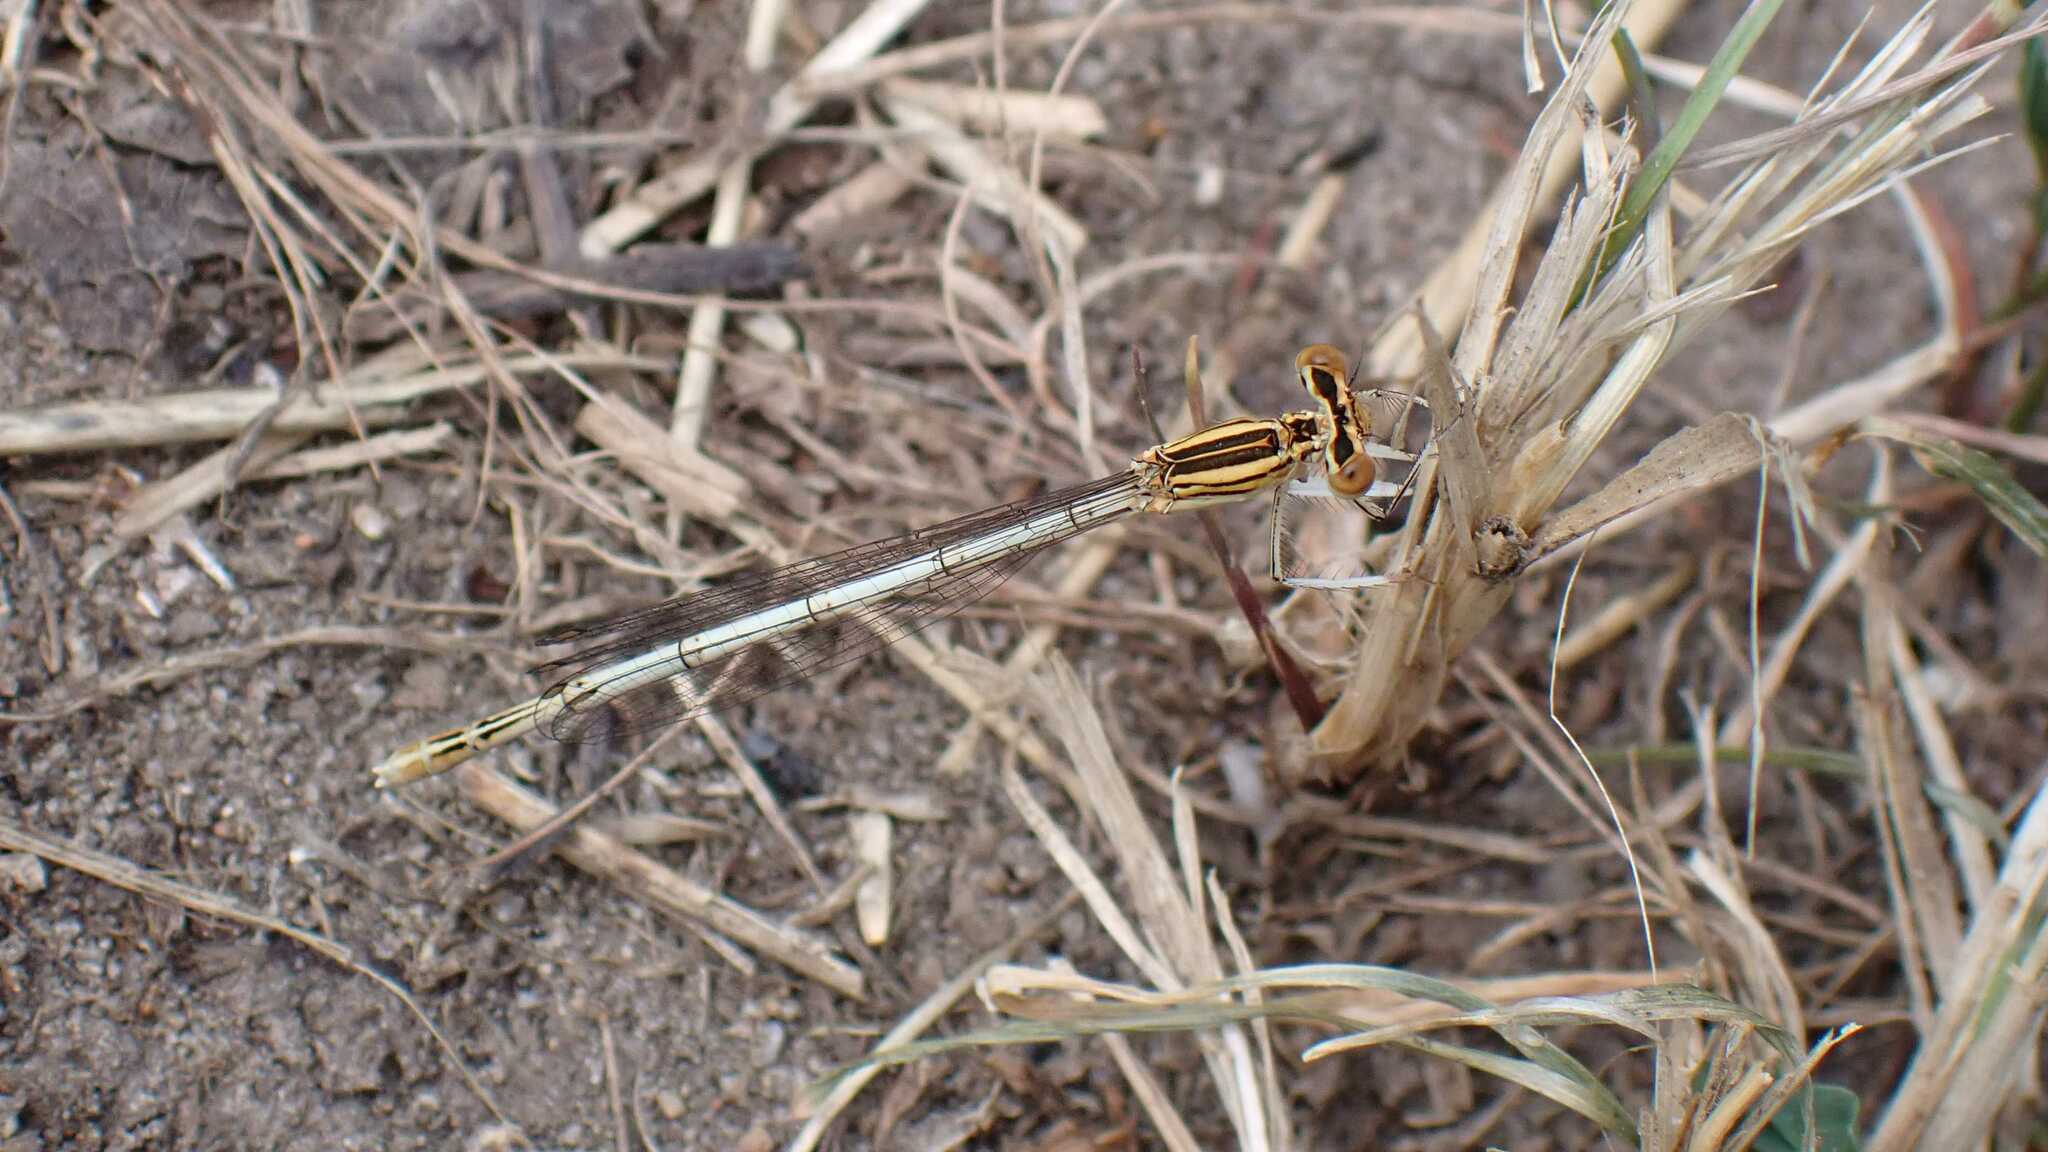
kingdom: Animalia
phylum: Arthropoda
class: Insecta
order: Odonata
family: Platycnemididae
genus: Platycnemis
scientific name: Platycnemis pennipes
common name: White-legged damselfly
